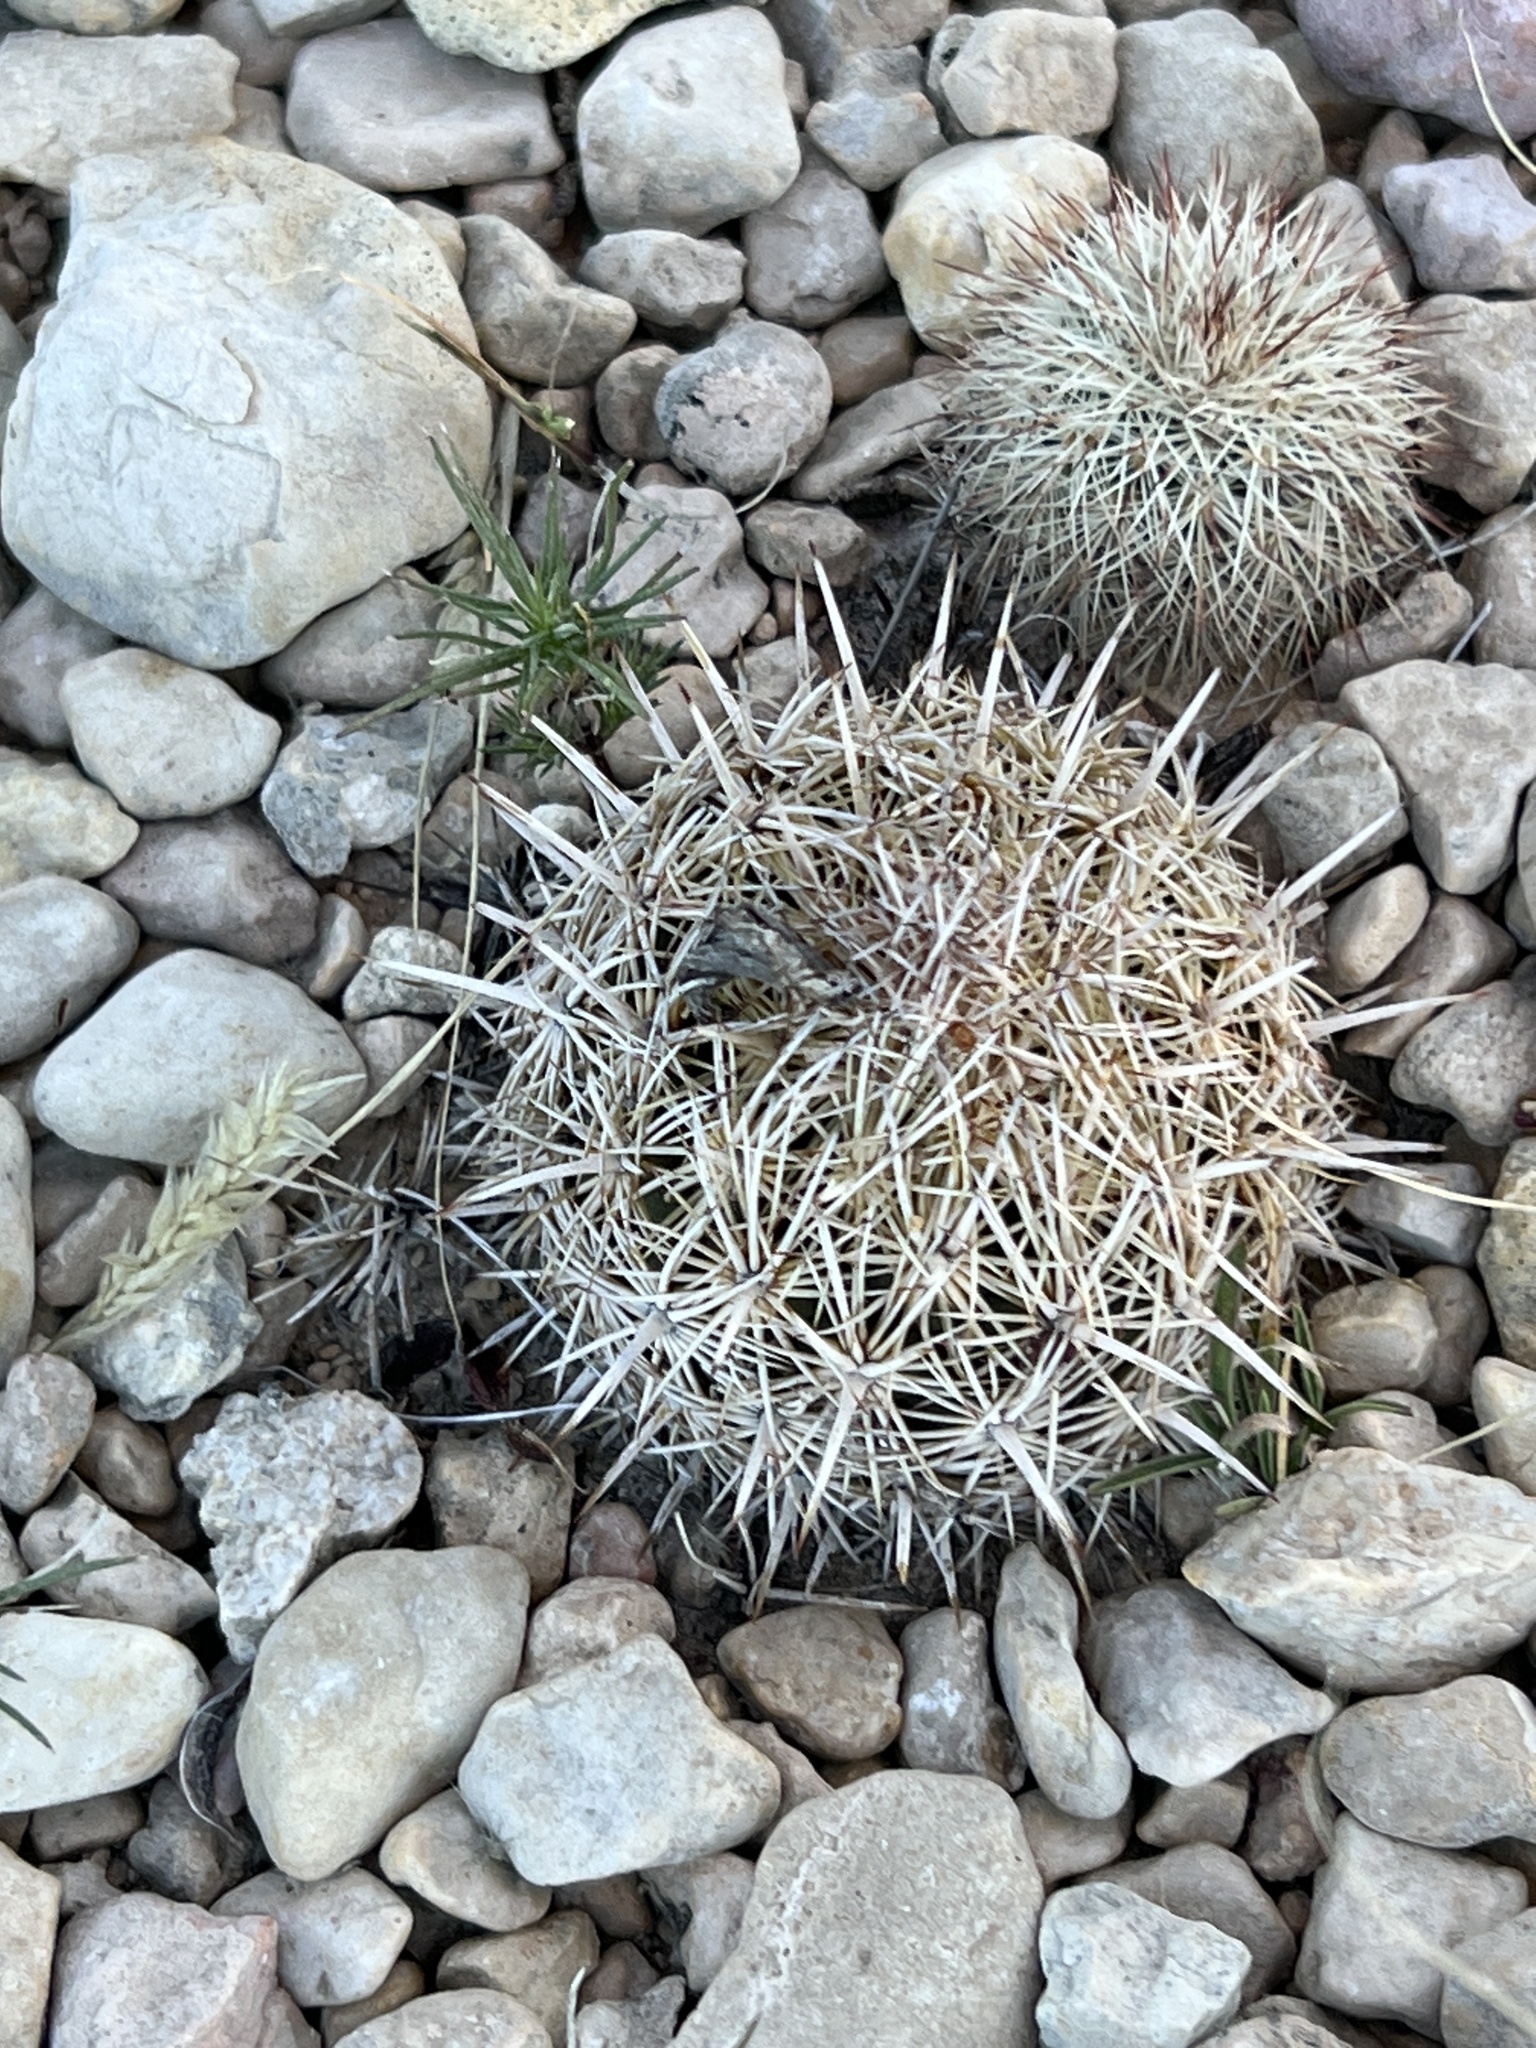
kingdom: Plantae
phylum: Tracheophyta
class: Magnoliopsida
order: Caryophyllales
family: Cactaceae
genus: Coryphantha
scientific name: Coryphantha echinus
